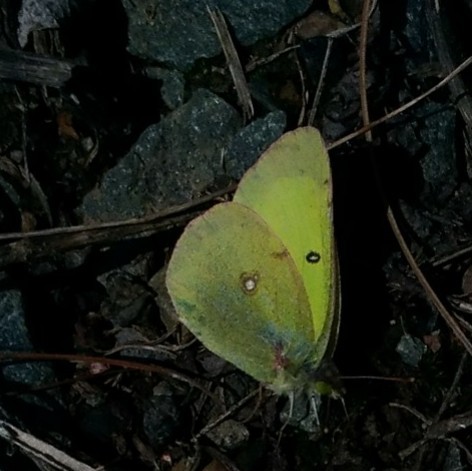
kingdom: Animalia
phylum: Arthropoda
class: Insecta
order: Lepidoptera
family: Pieridae
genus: Colias
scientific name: Colias philodice
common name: Clouded sulphur
